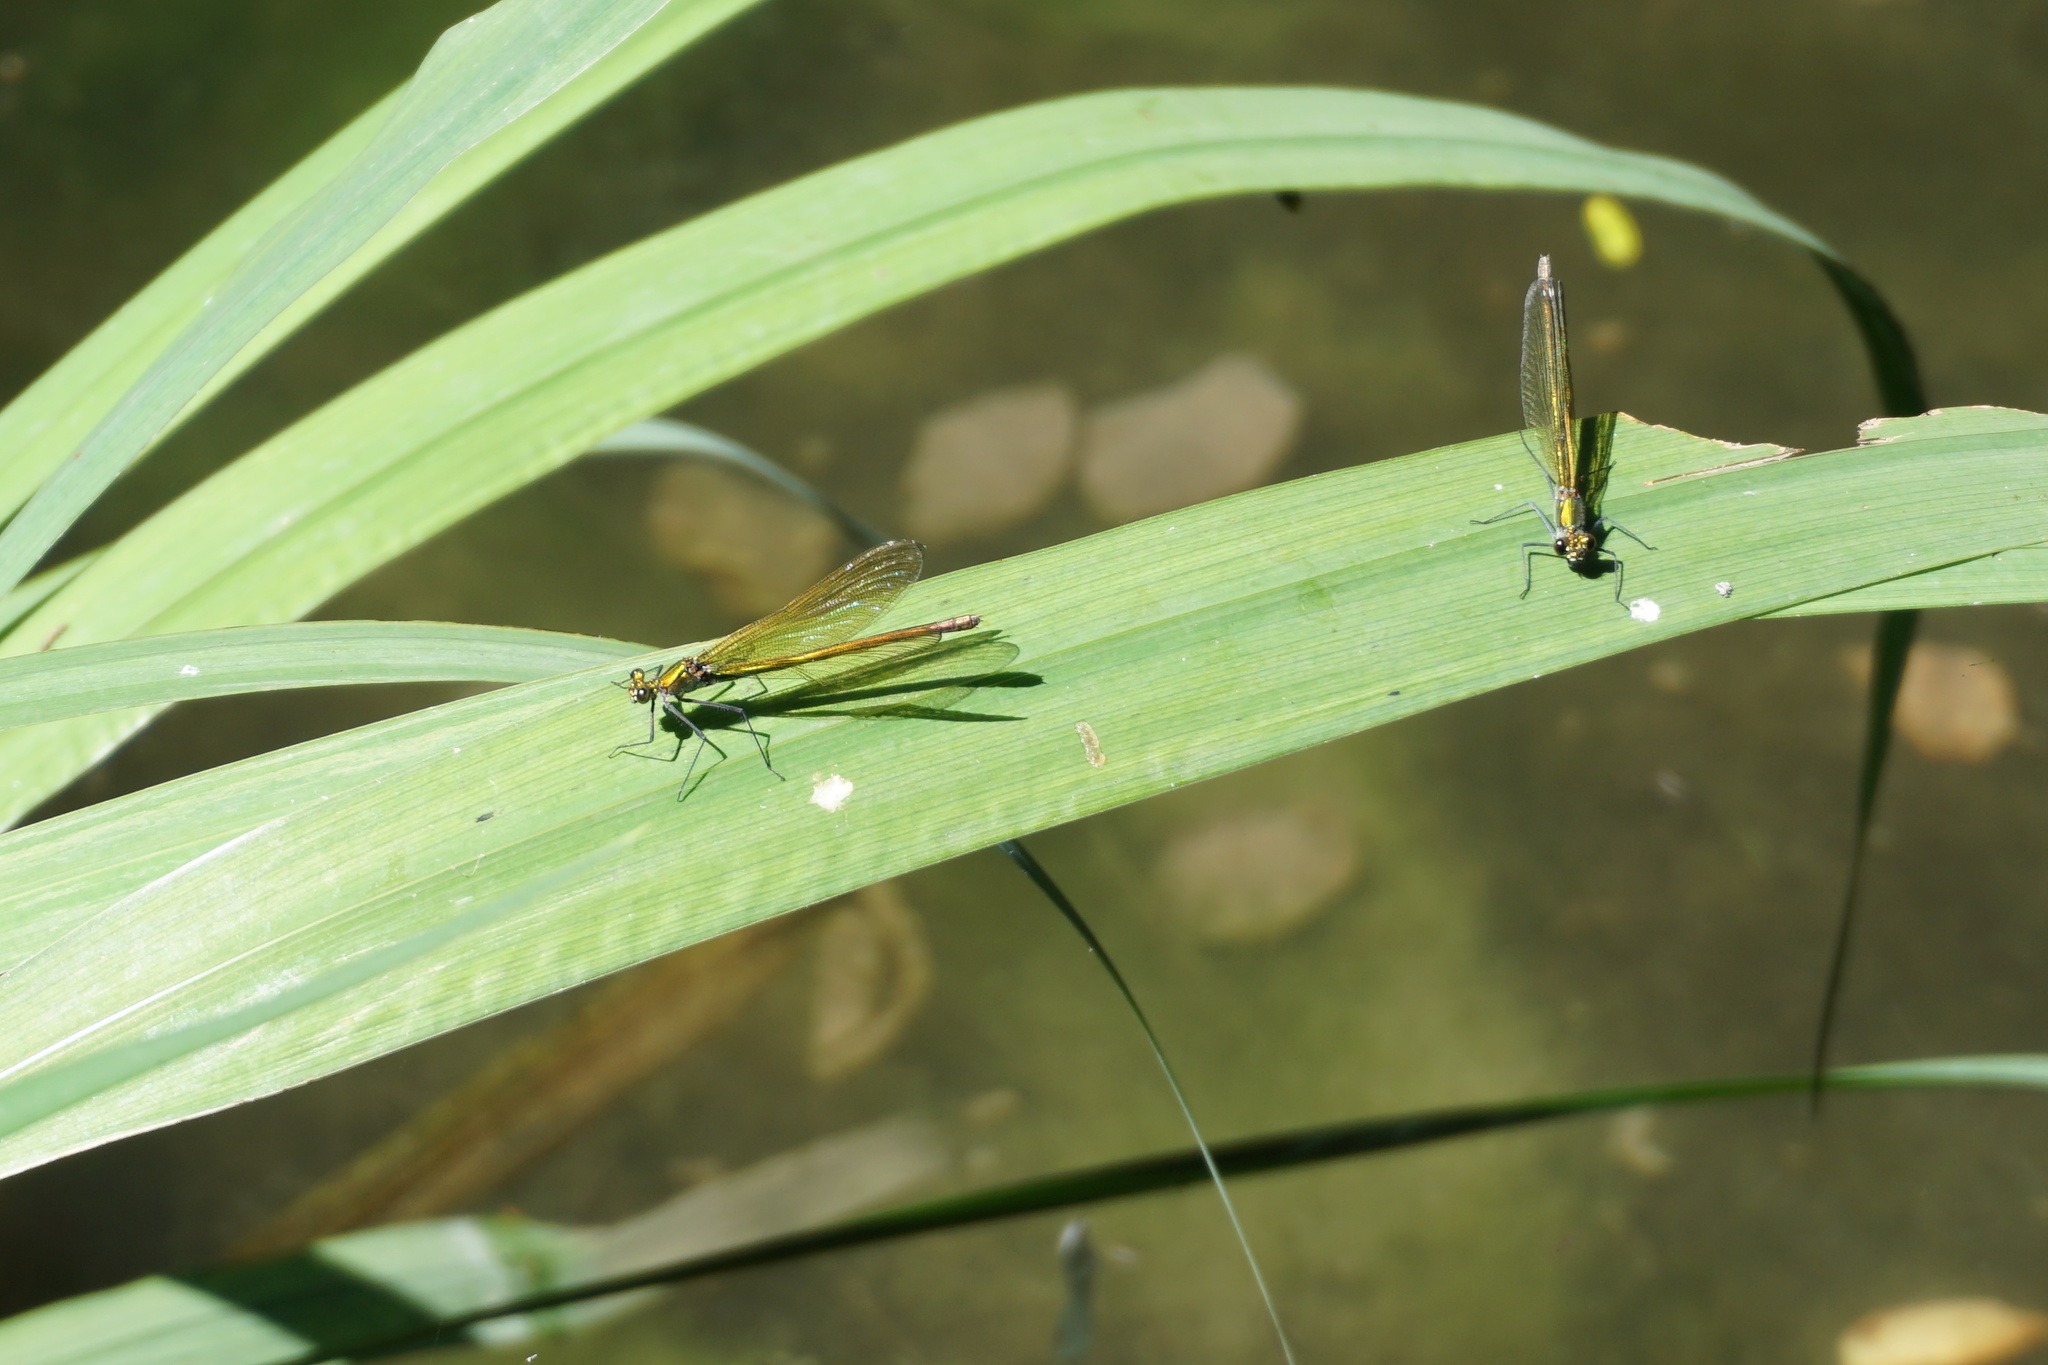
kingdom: Animalia
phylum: Arthropoda
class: Insecta
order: Odonata
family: Calopterygidae
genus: Calopteryx
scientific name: Calopteryx splendens
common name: Banded demoiselle
